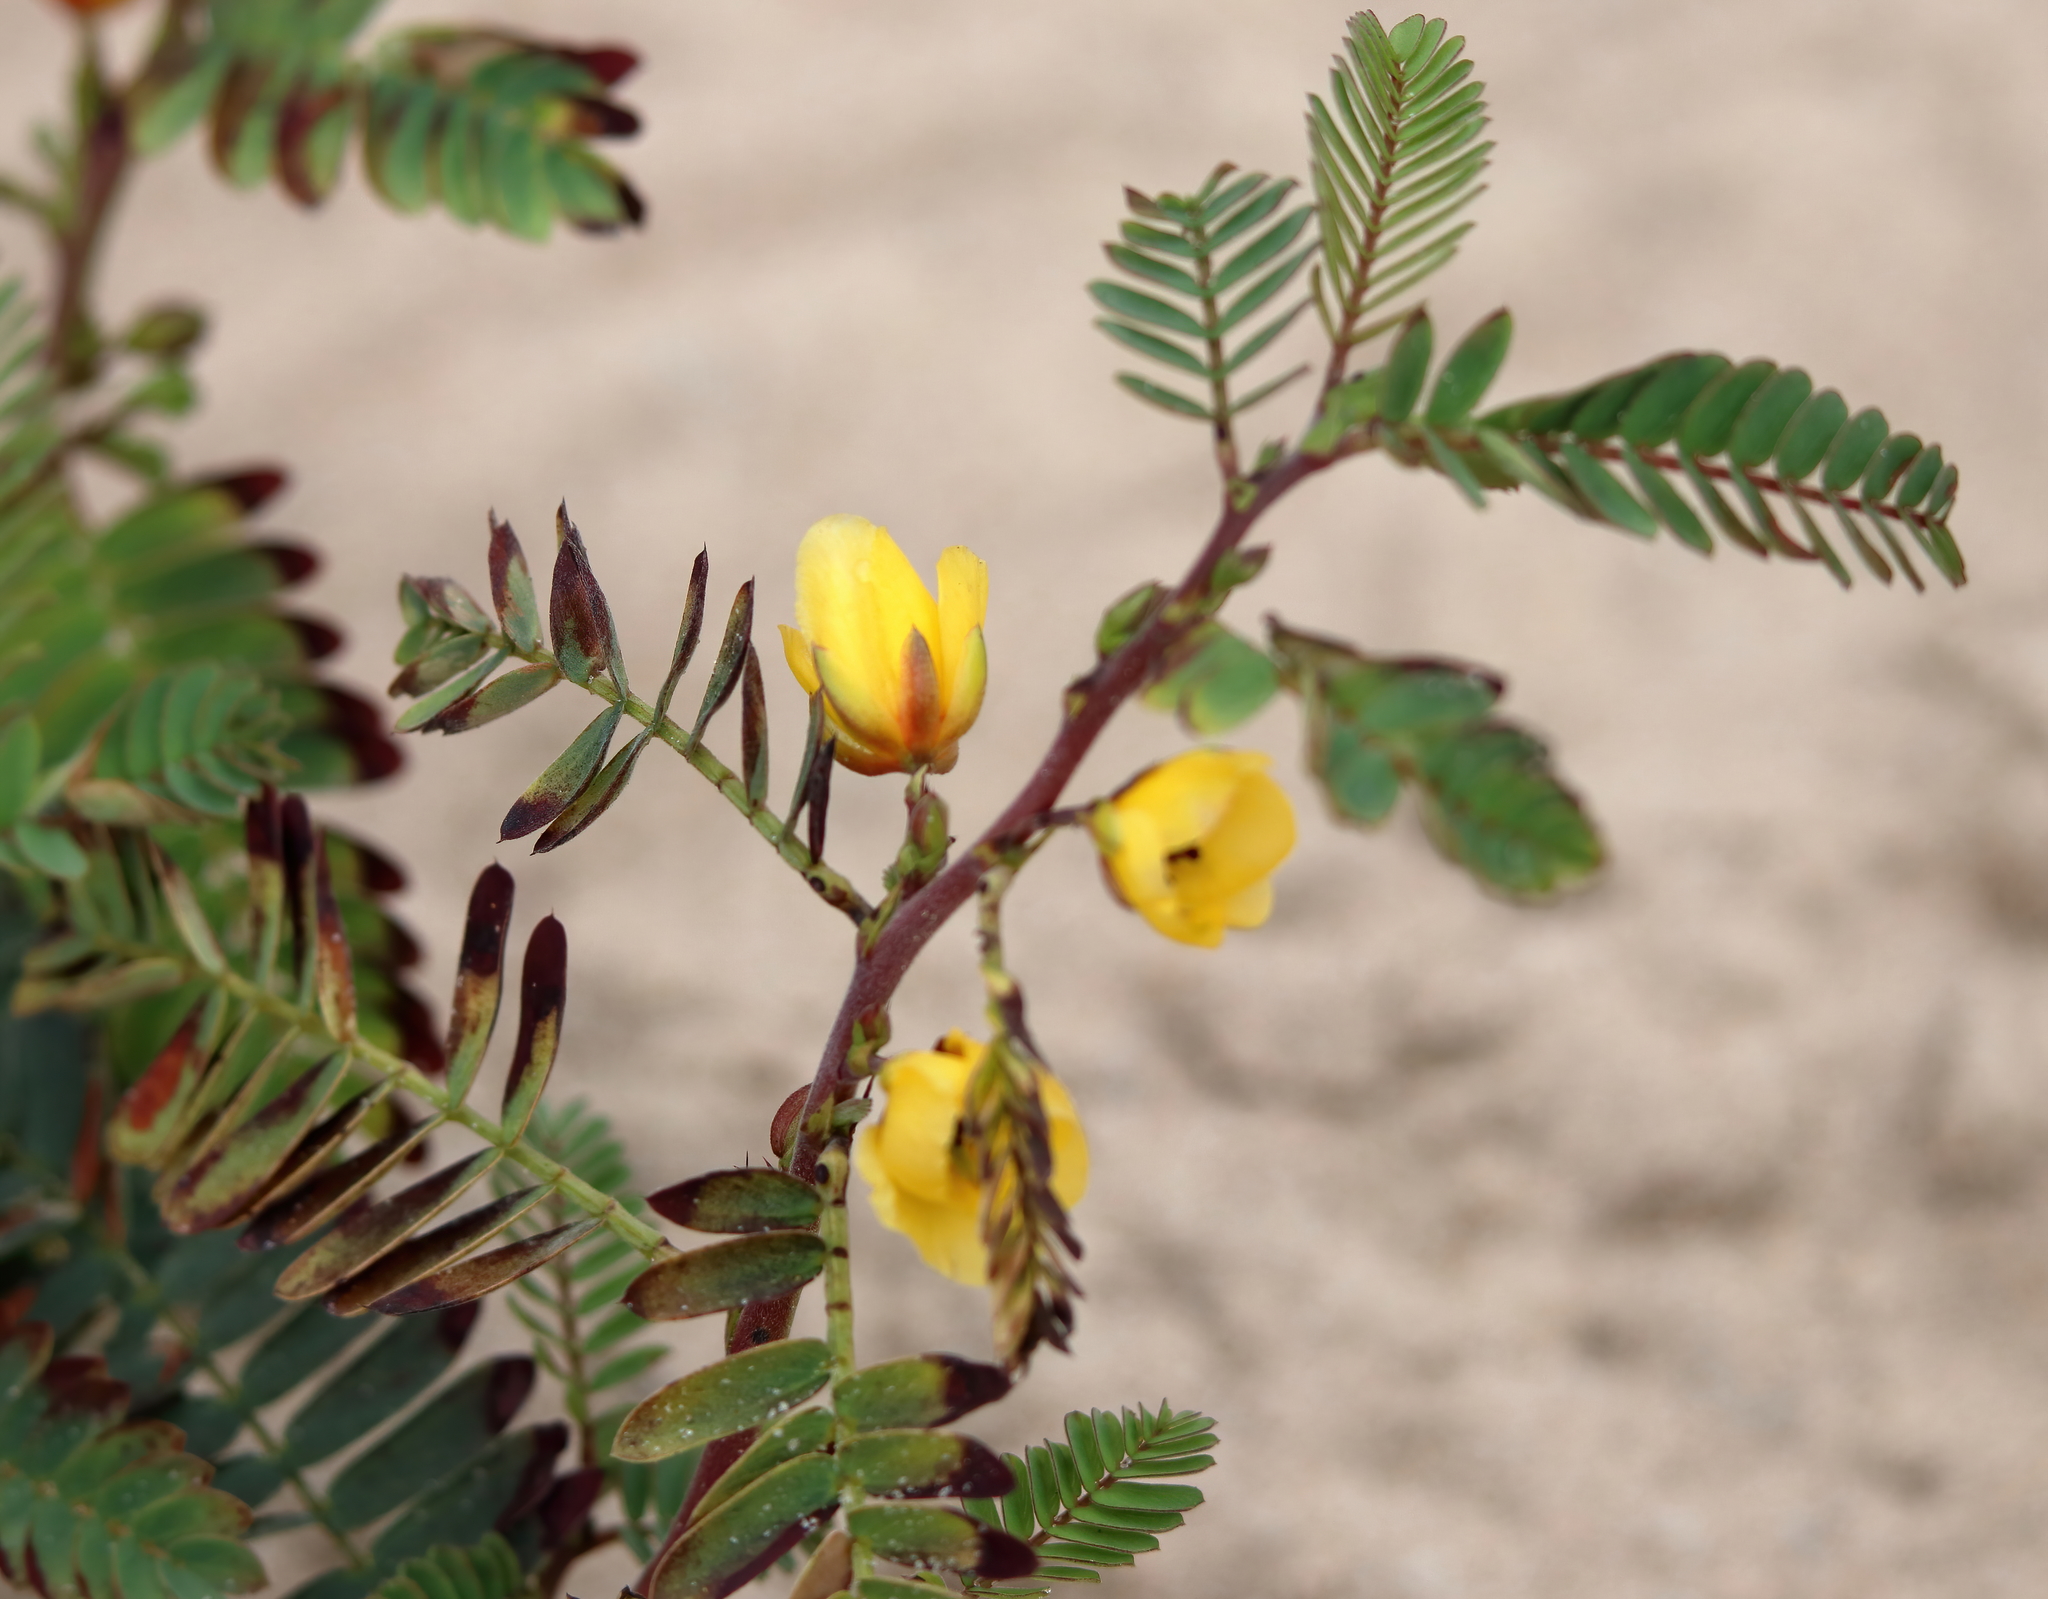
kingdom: Plantae
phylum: Tracheophyta
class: Magnoliopsida
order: Fabales
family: Fabaceae
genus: Chamaecrista
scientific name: Chamaecrista fasciculata
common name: Golden cassia
